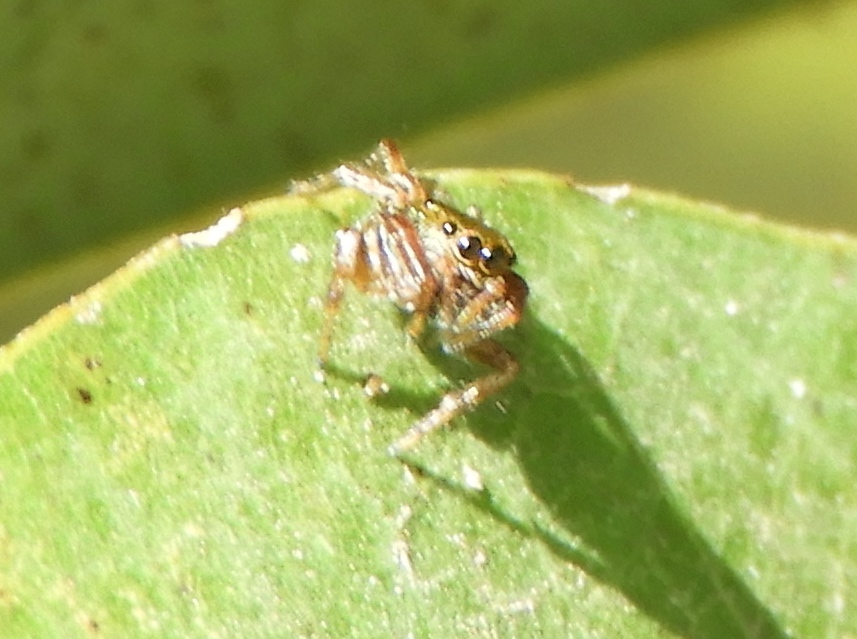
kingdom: Animalia
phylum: Arthropoda
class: Arachnida
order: Araneae
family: Salticidae
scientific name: Salticidae
